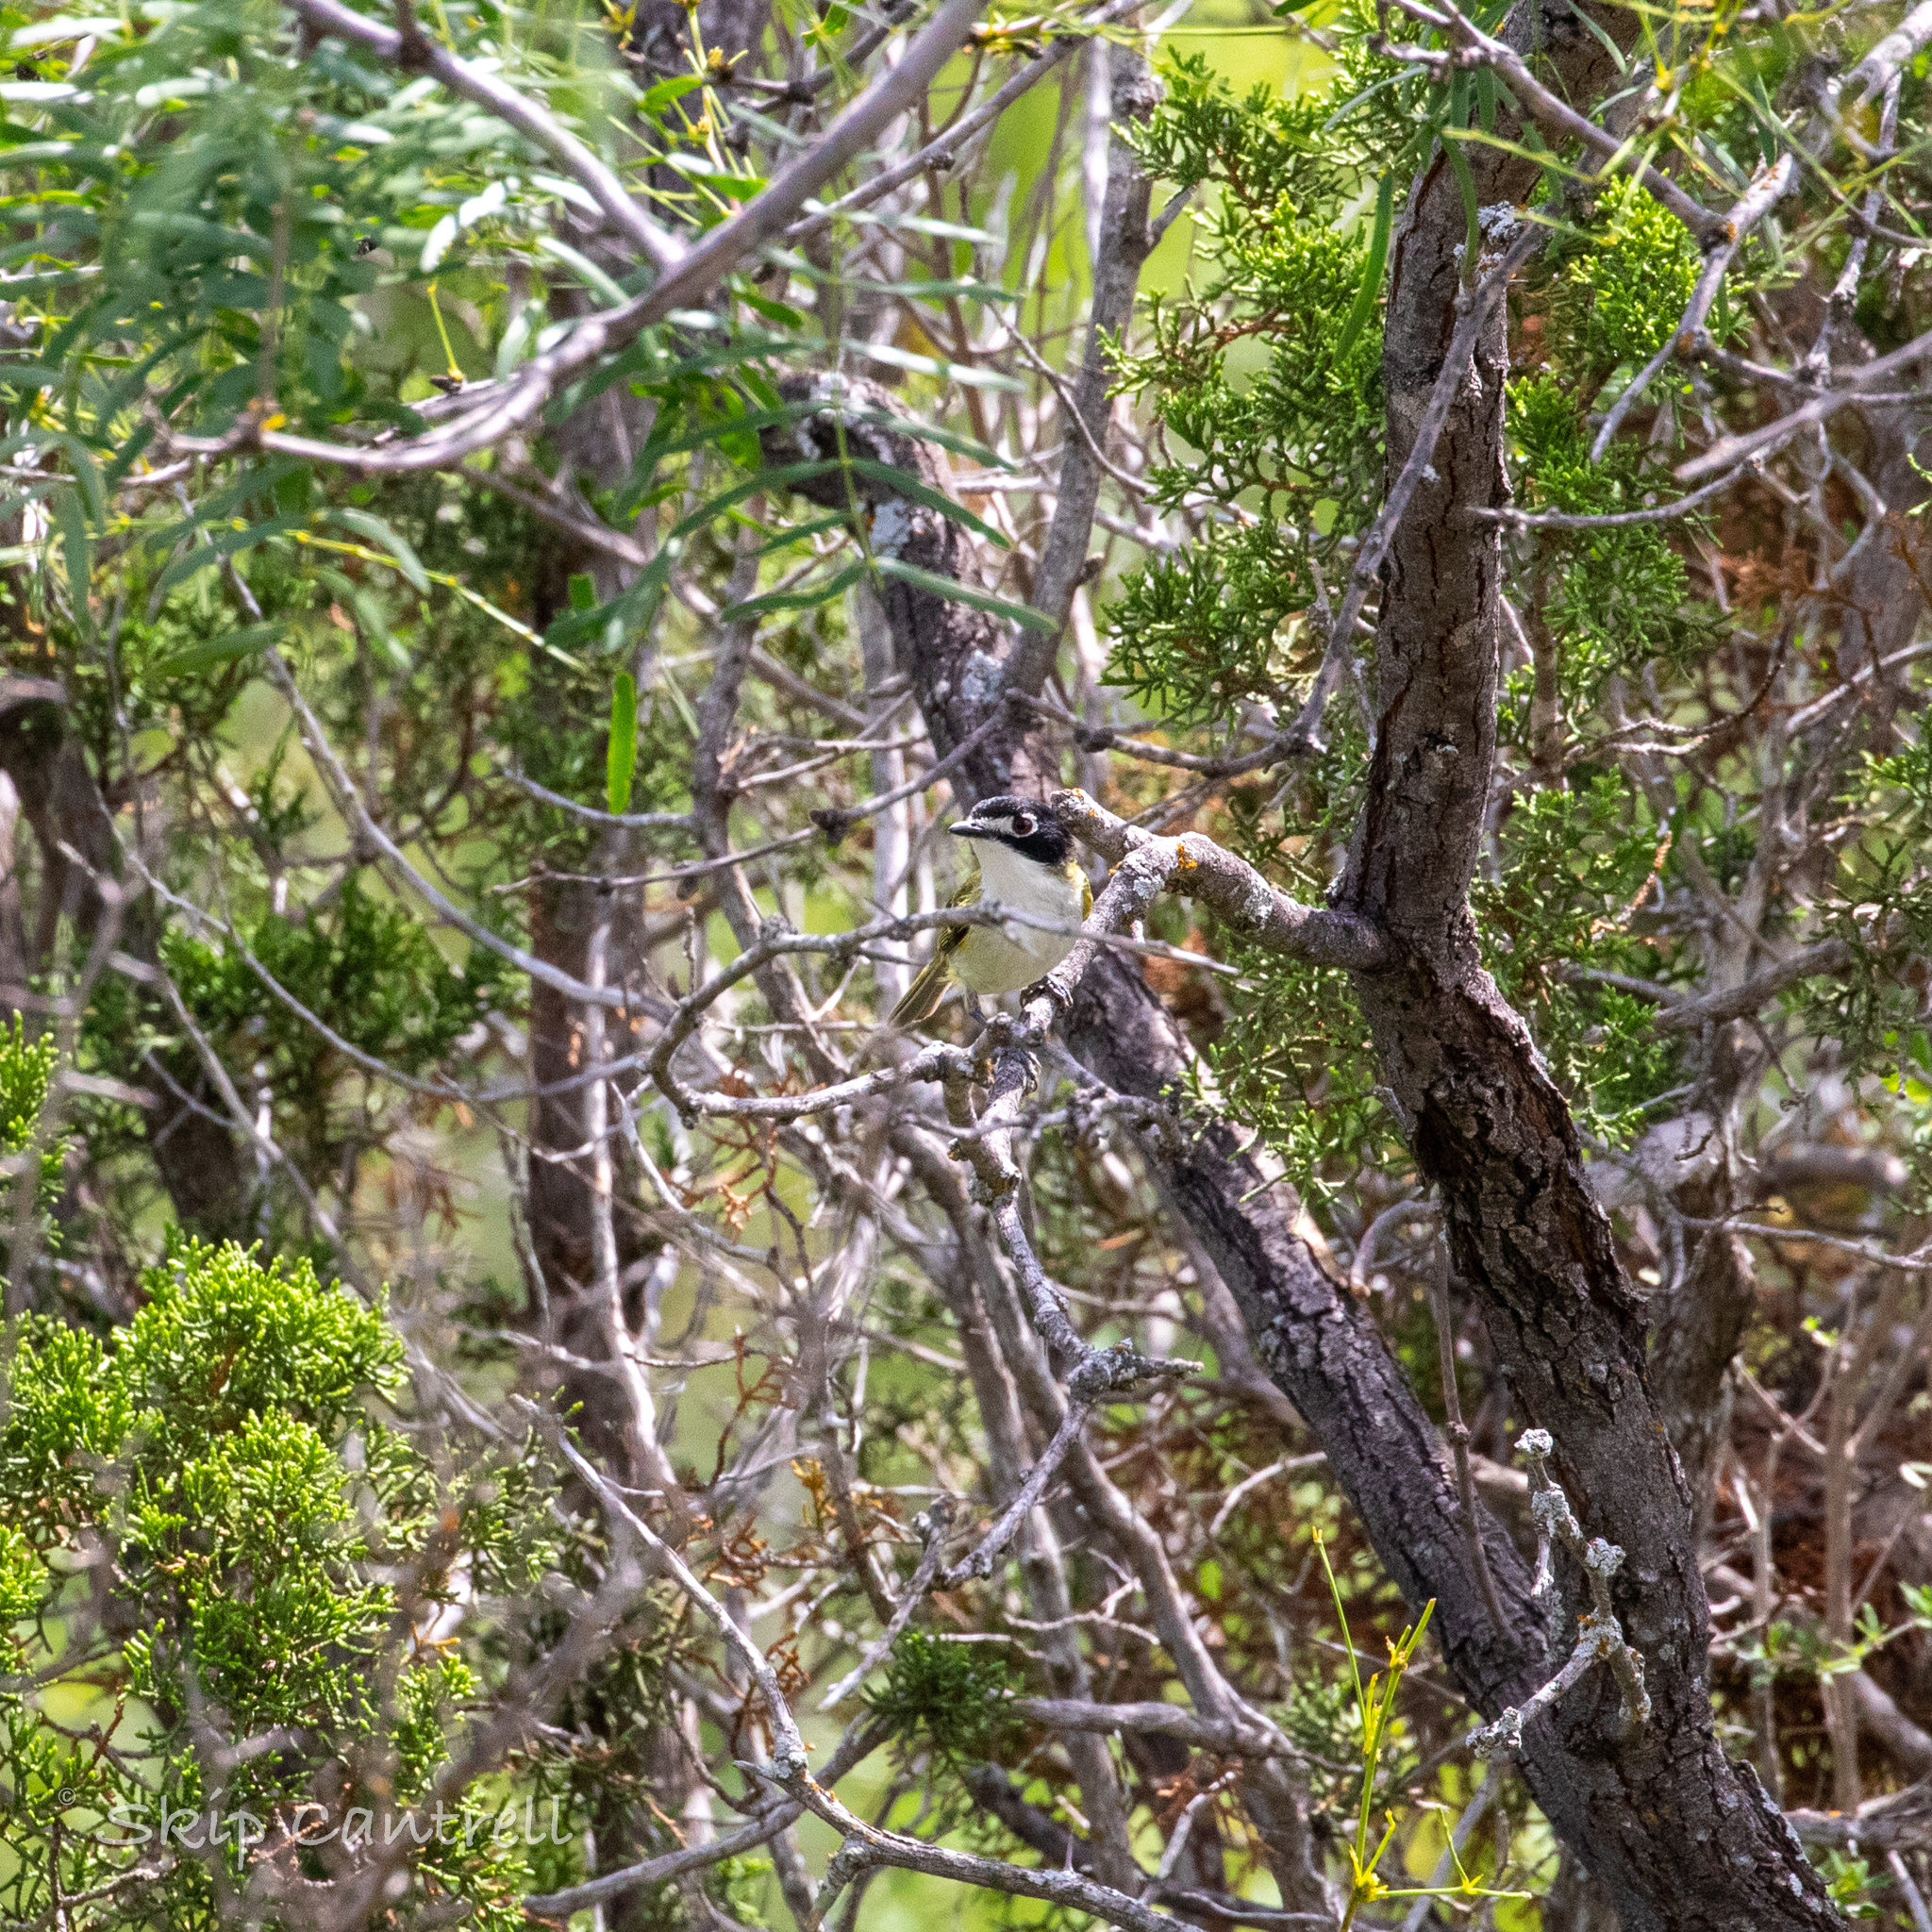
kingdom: Animalia
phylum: Chordata
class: Aves
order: Passeriformes
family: Vireonidae
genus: Vireo
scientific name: Vireo atricapilla
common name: Black-capped vireo
